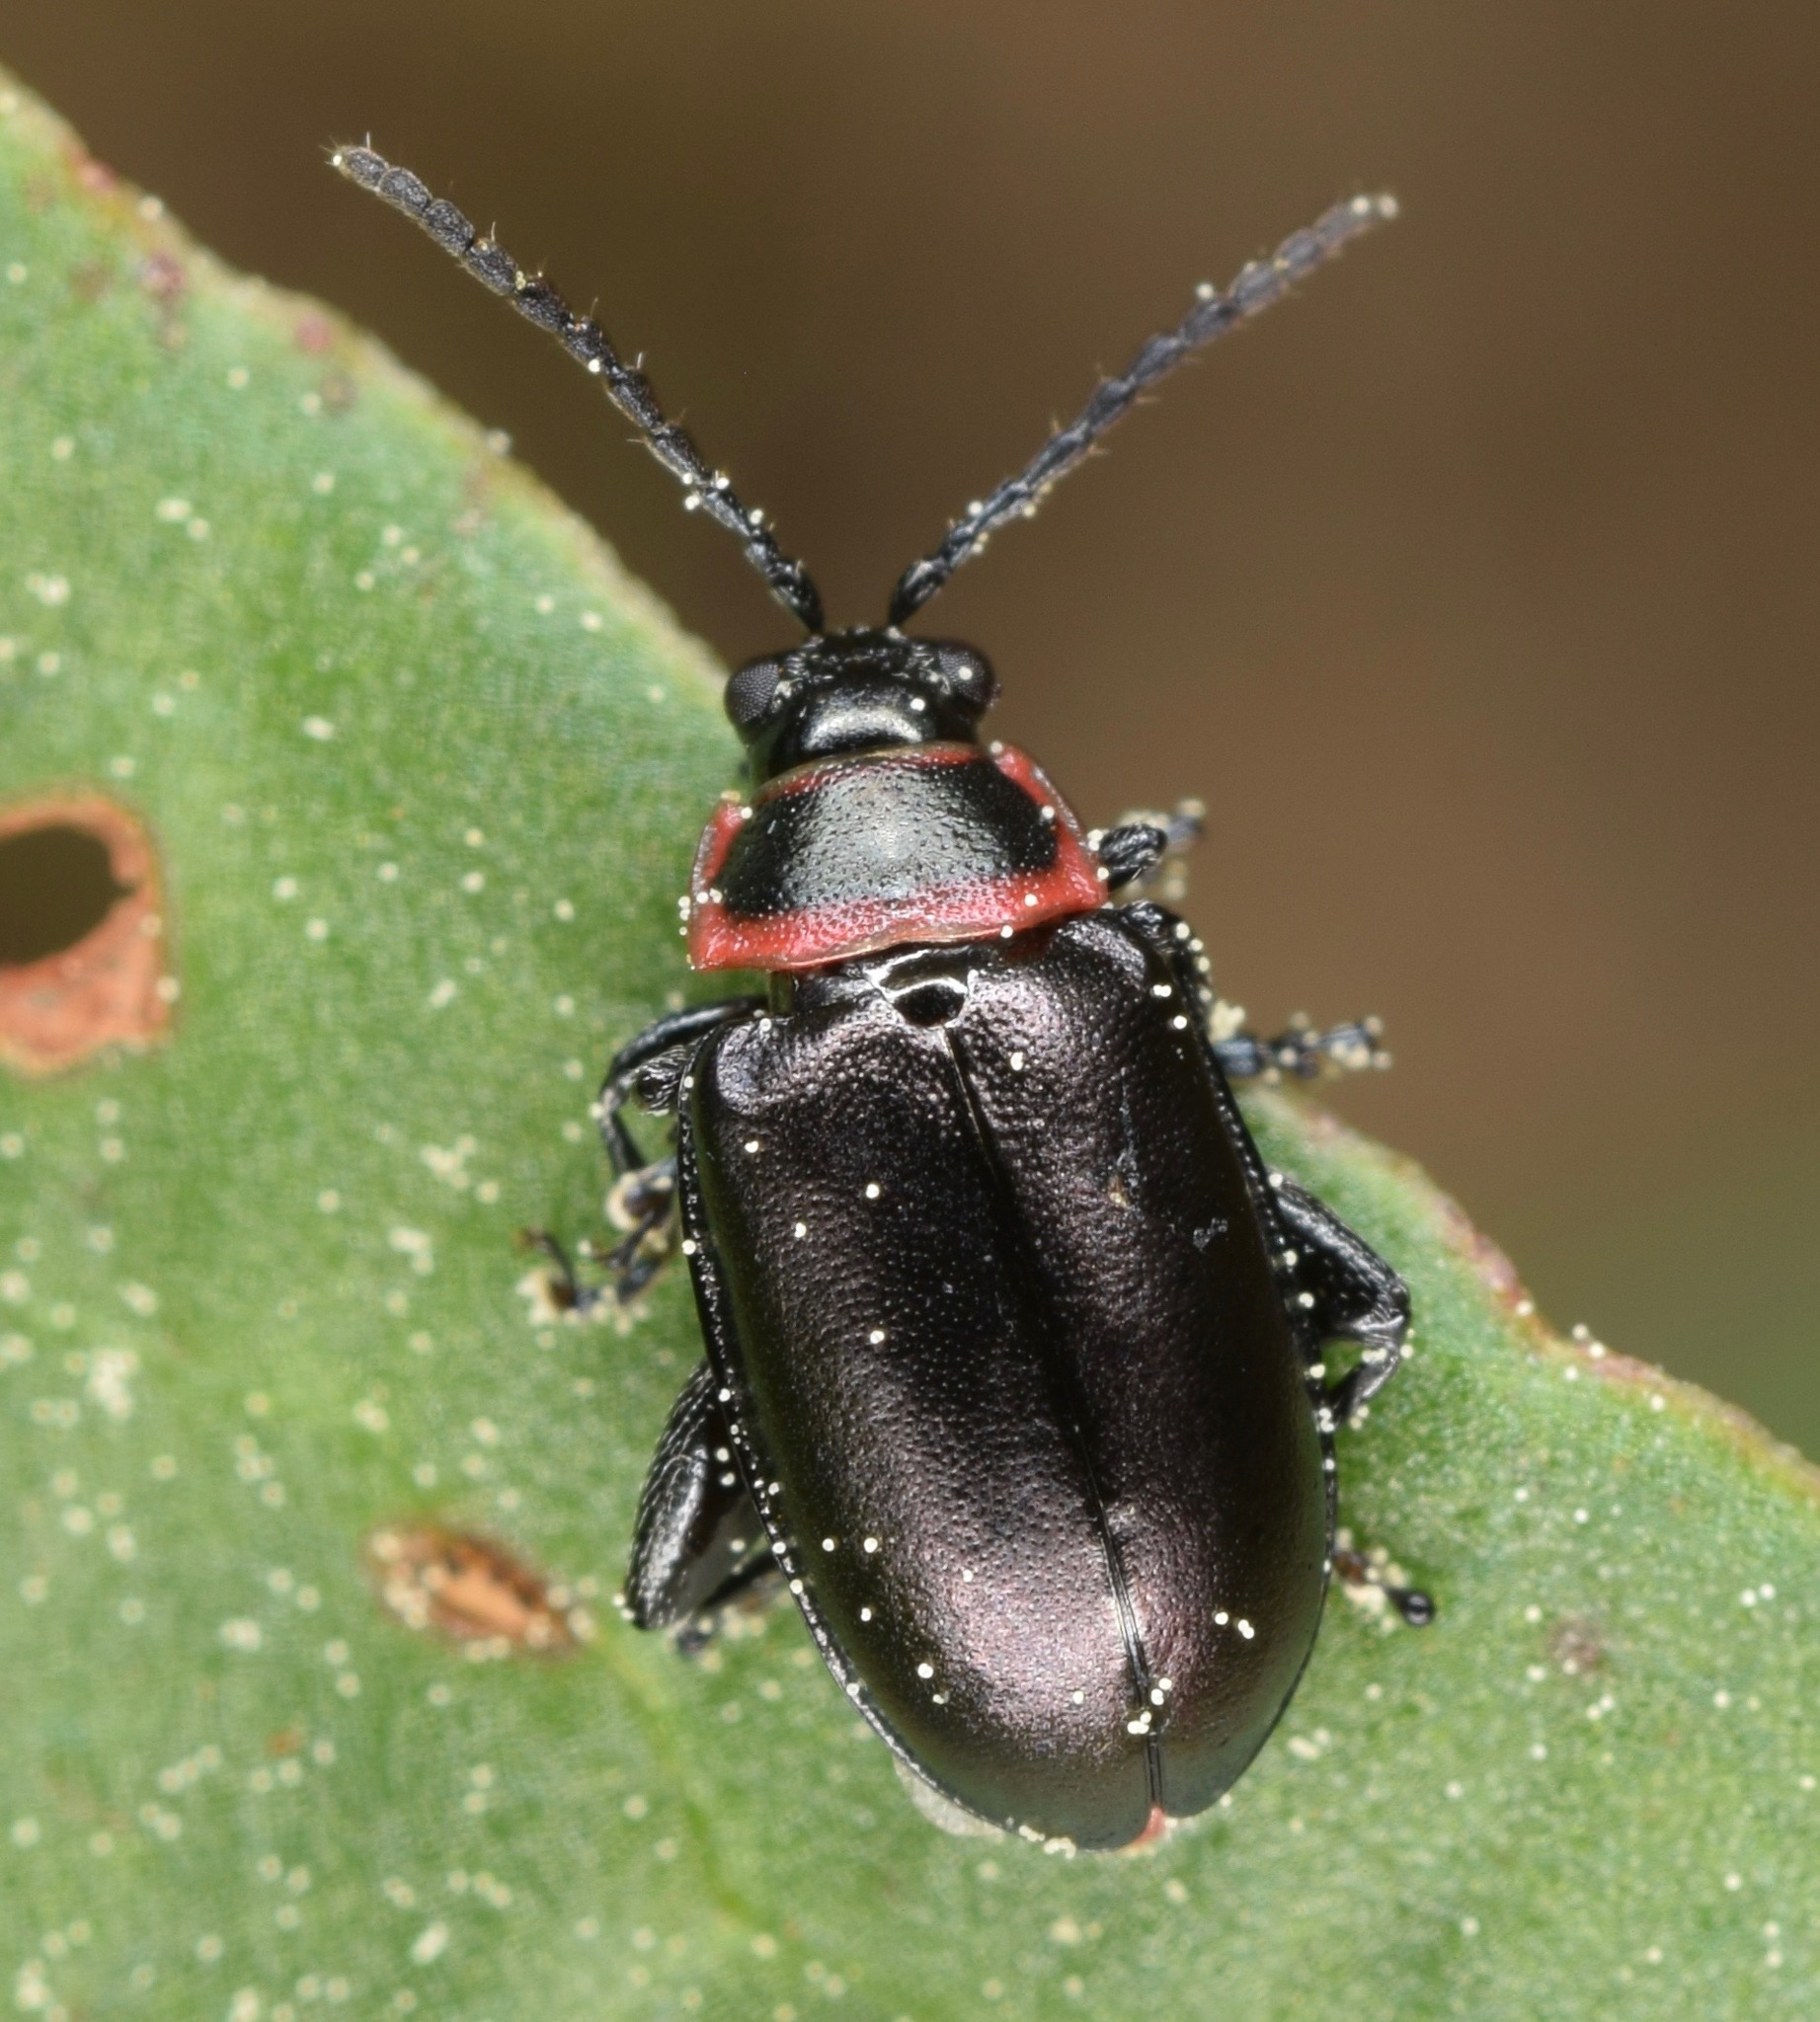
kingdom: Animalia
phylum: Arthropoda
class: Insecta
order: Coleoptera
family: Chrysomelidae
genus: Kuschelina
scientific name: Kuschelina vians
